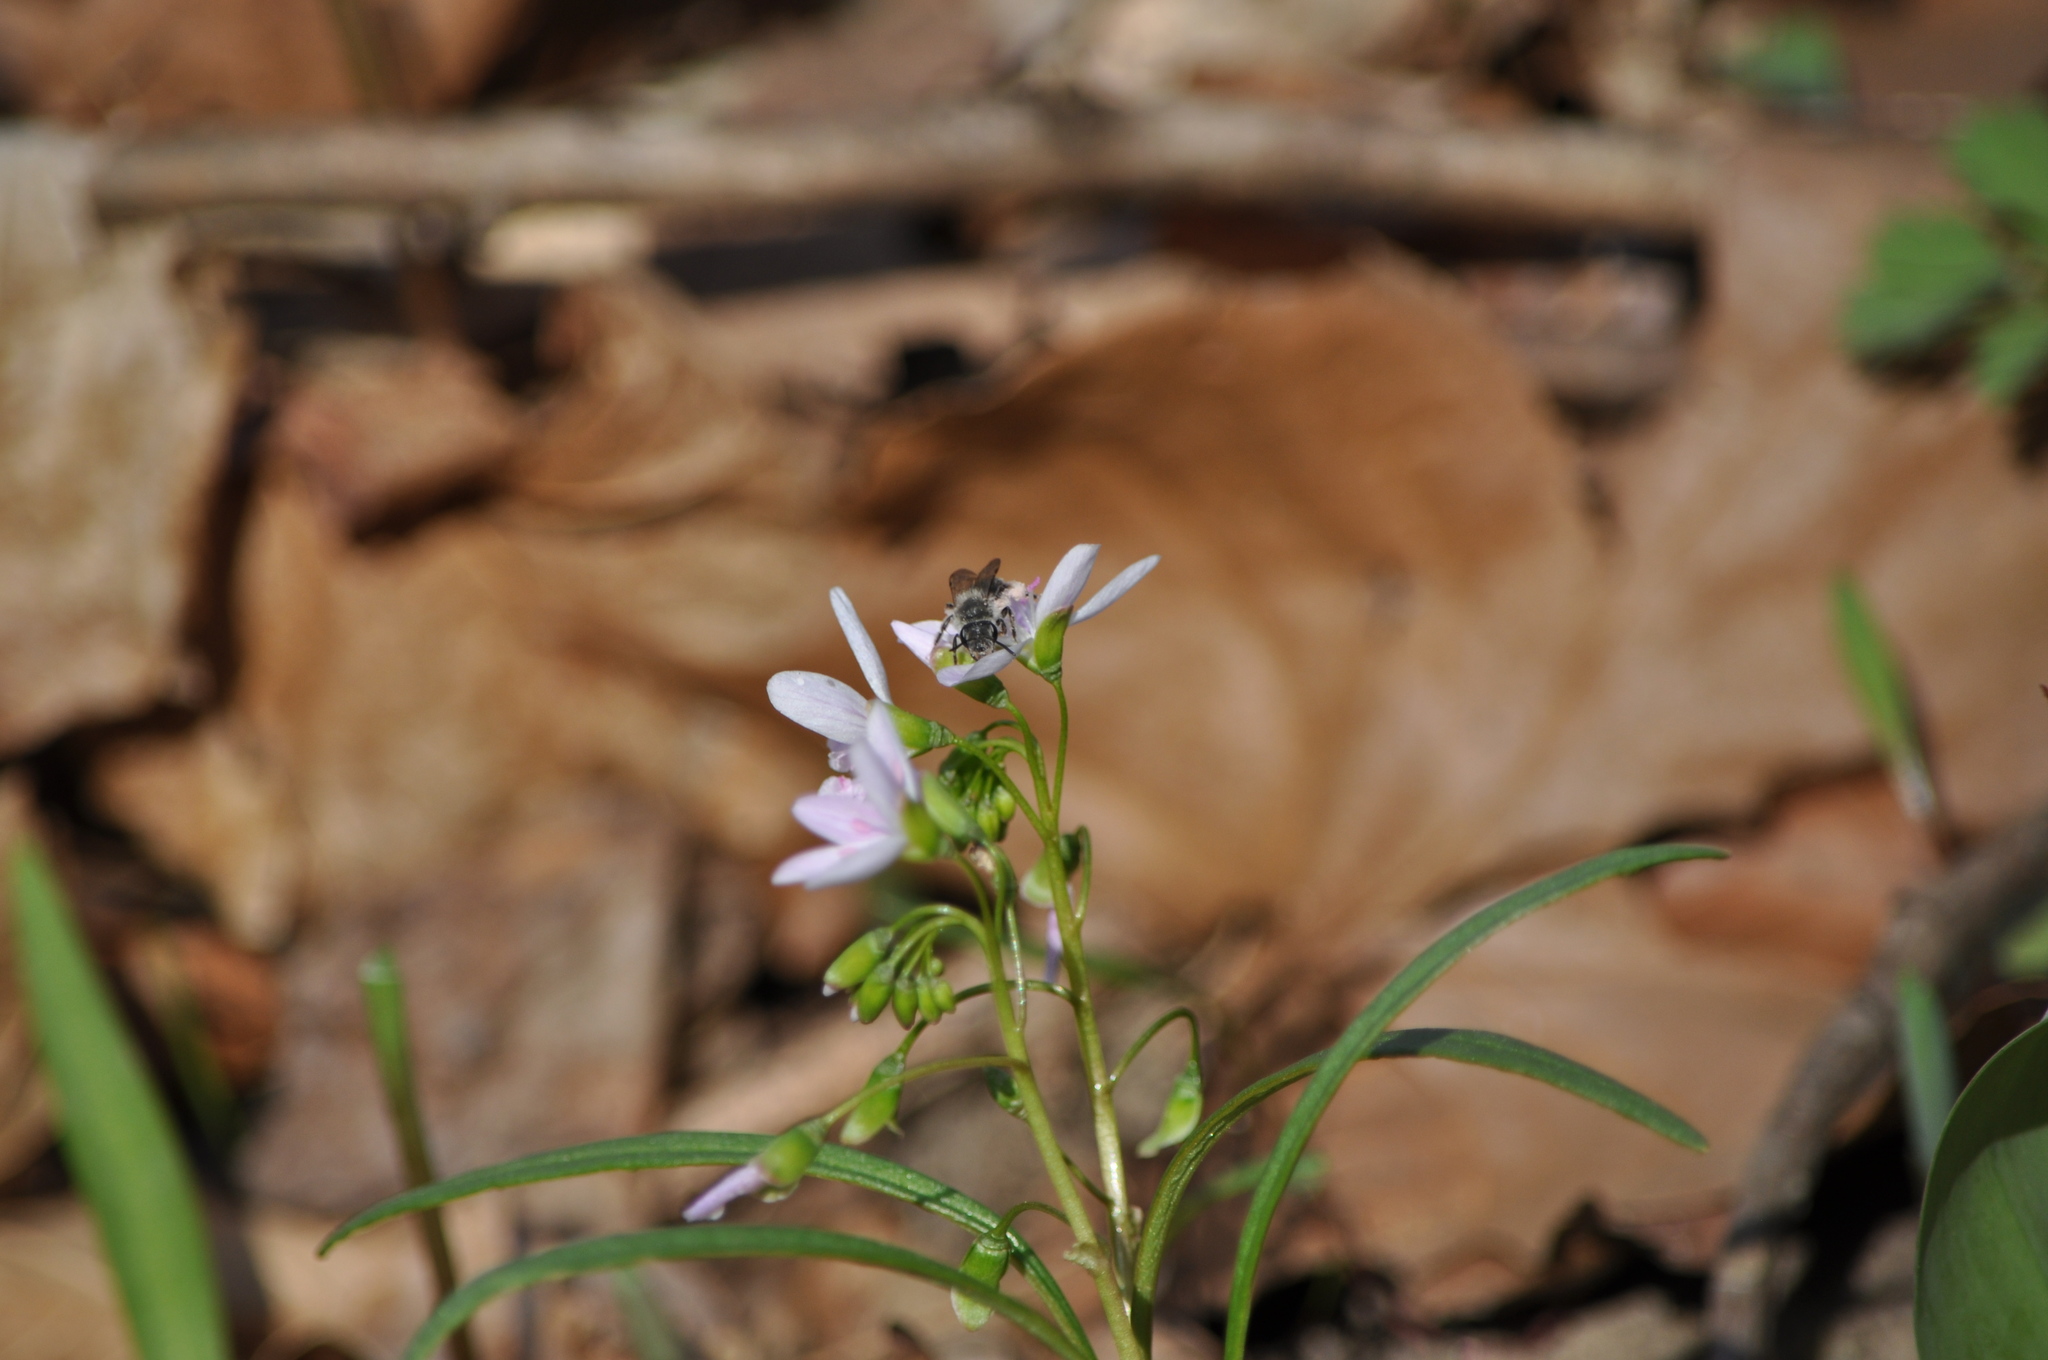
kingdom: Plantae
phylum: Tracheophyta
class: Magnoliopsida
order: Caryophyllales
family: Montiaceae
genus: Claytonia
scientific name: Claytonia virginica
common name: Virginia springbeauty
